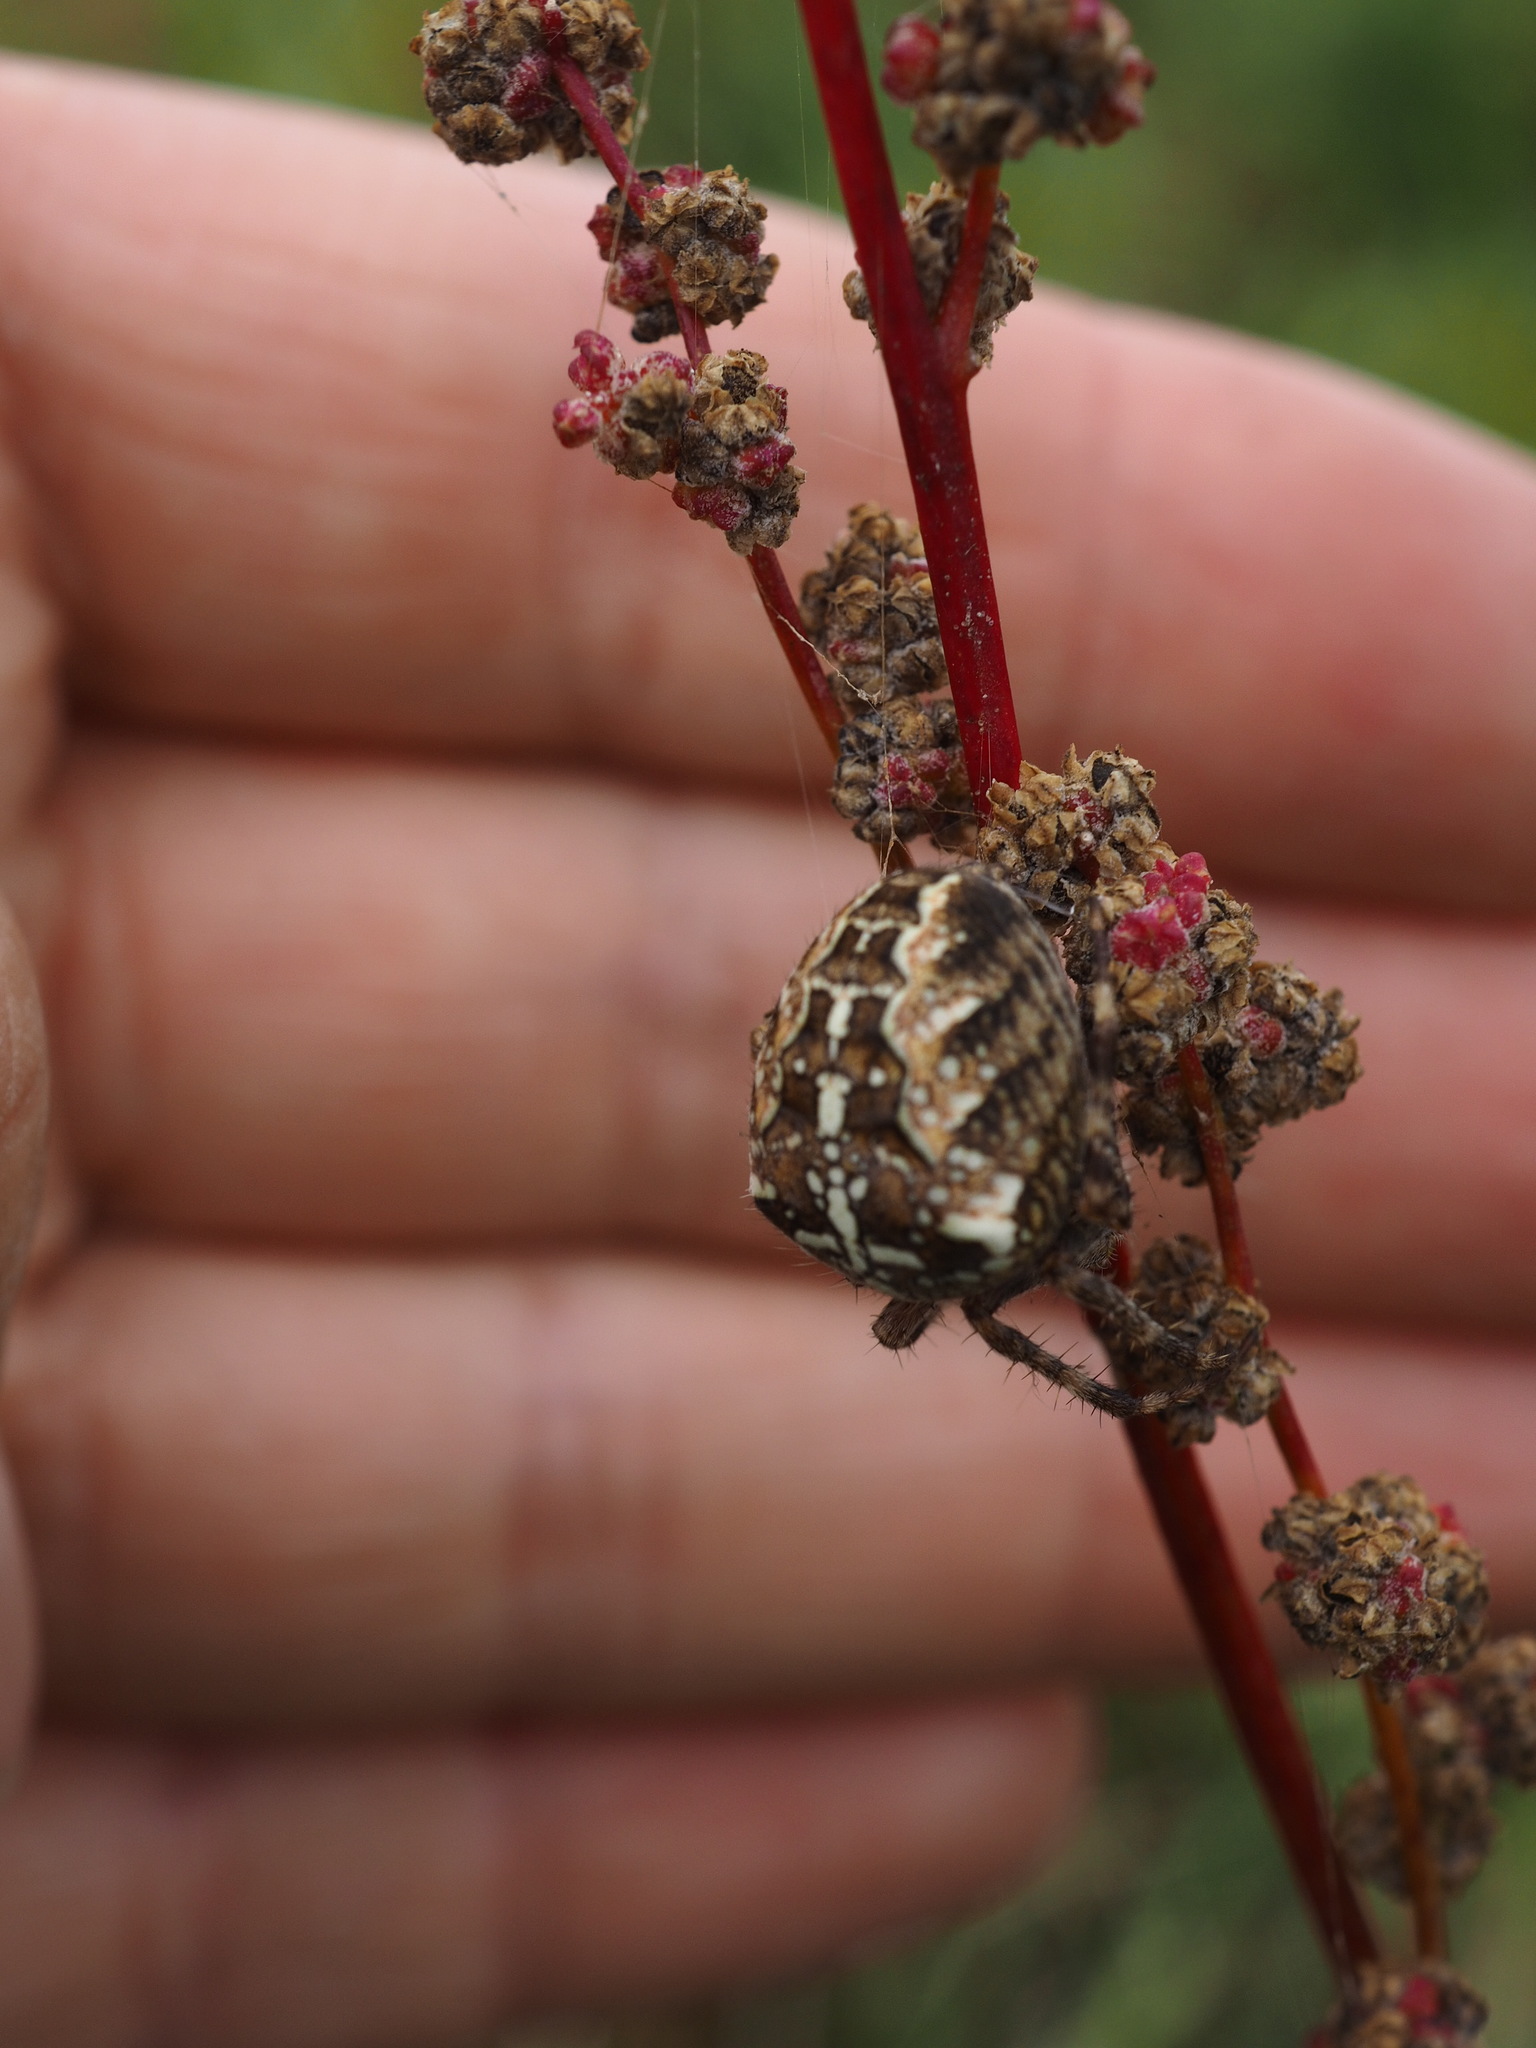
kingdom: Animalia
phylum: Arthropoda
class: Arachnida
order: Araneae
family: Araneidae
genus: Araneus
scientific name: Araneus diadematus
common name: Cross orbweaver
